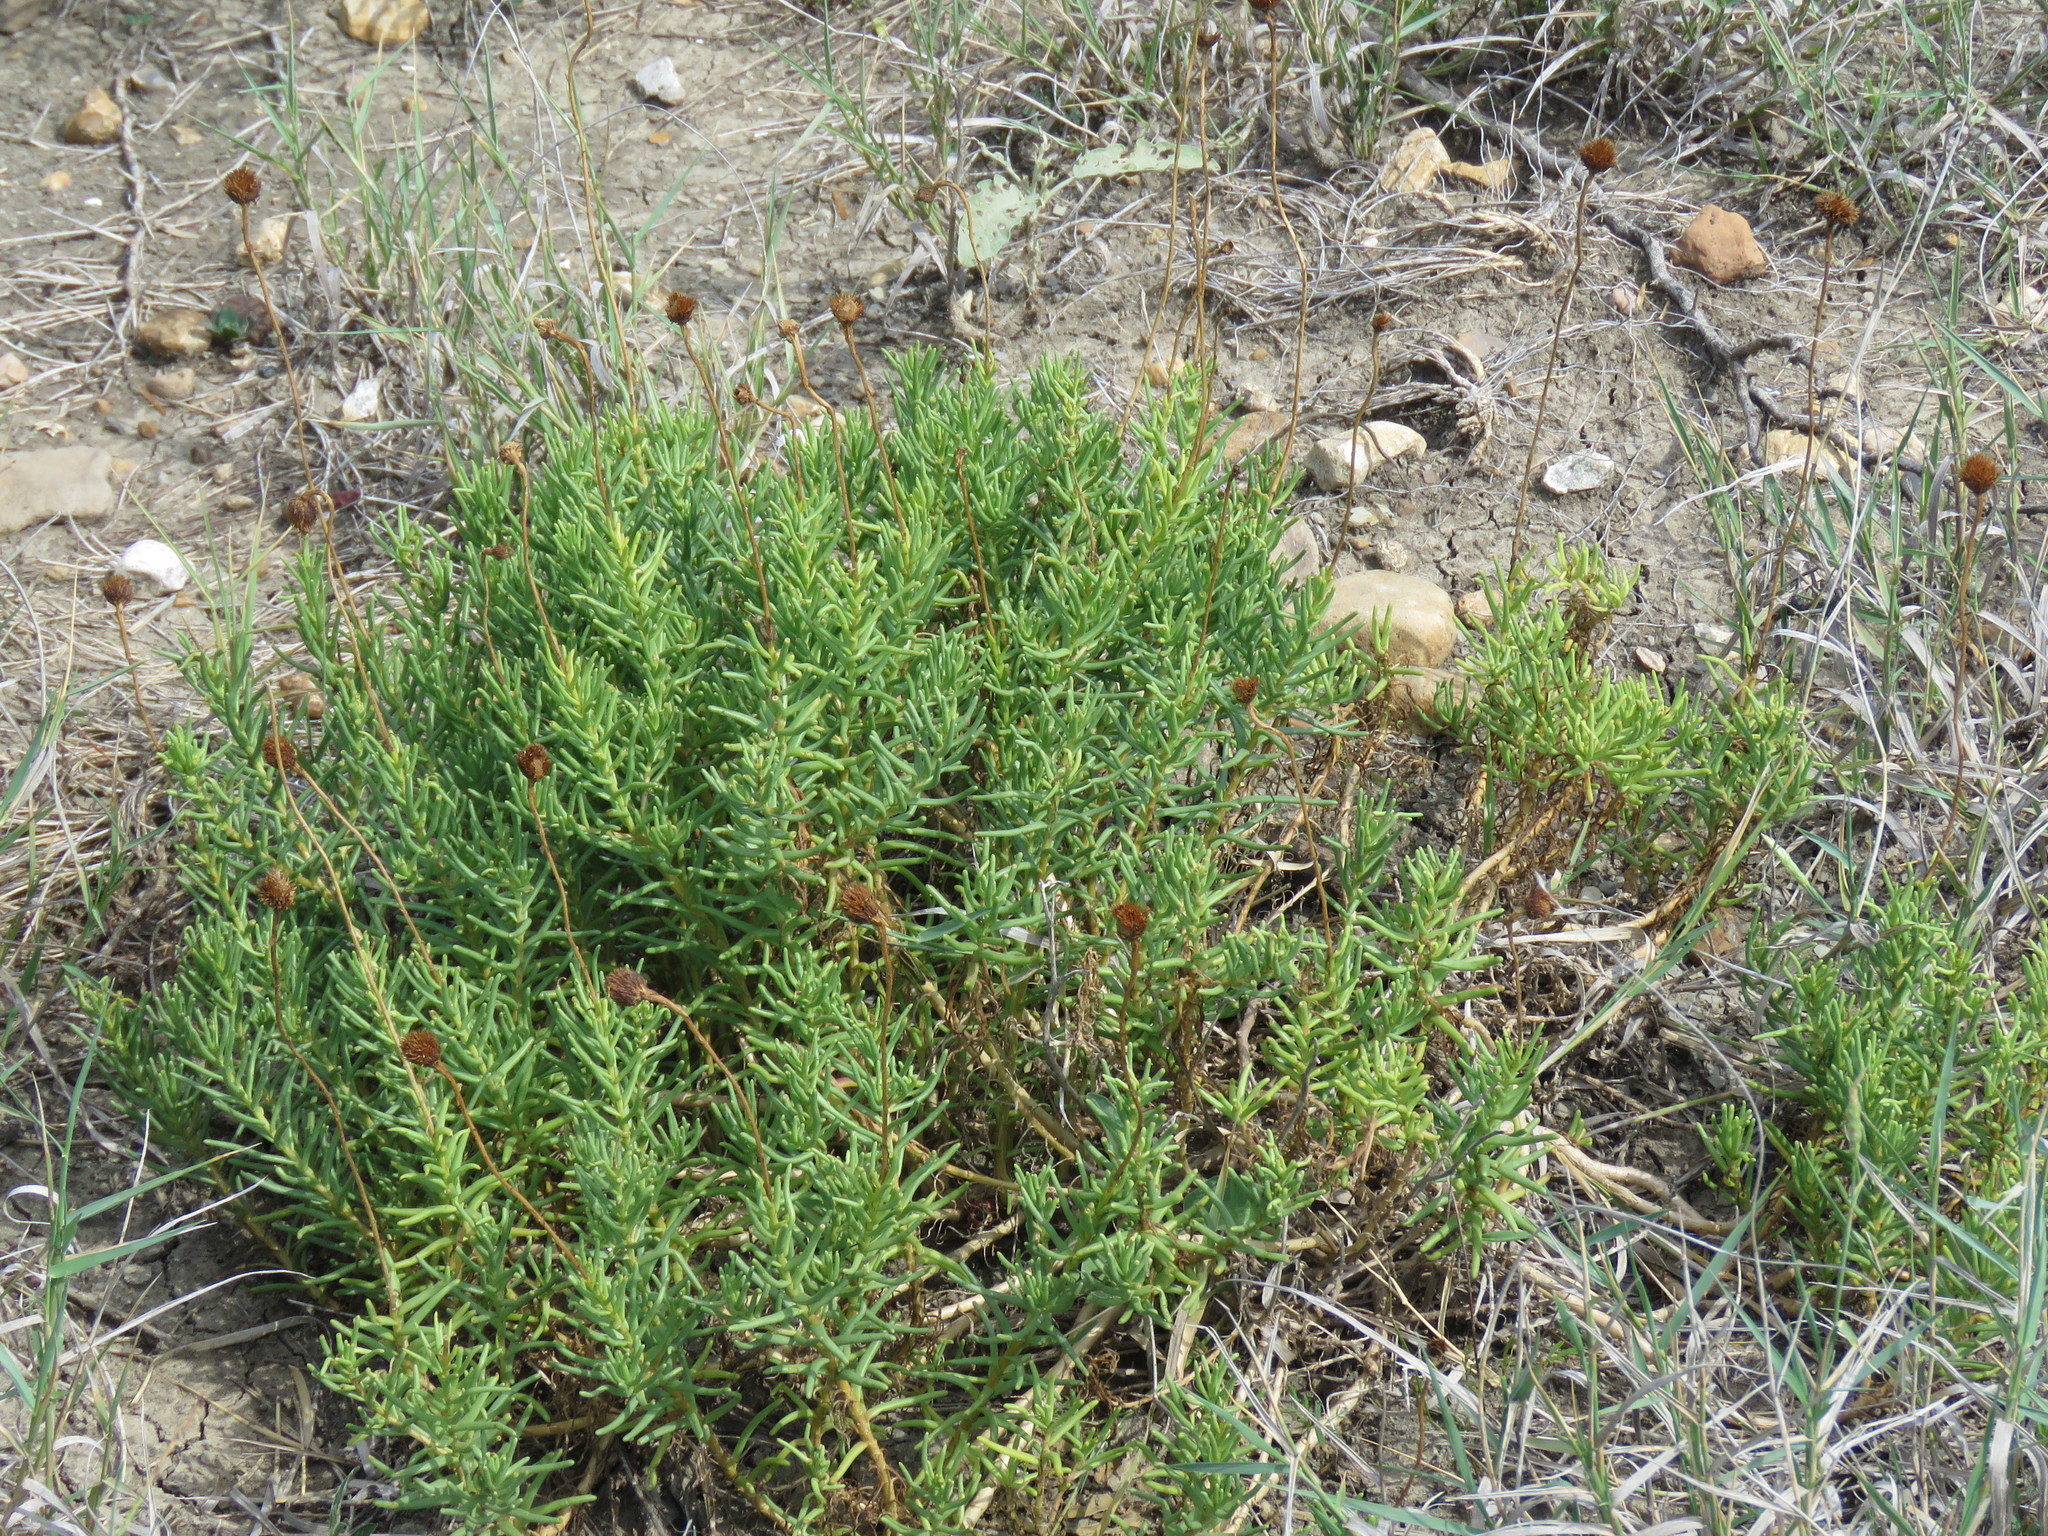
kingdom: Plantae
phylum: Tracheophyta
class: Magnoliopsida
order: Asterales
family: Asteraceae
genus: Clappia
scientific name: Clappia suaedifolia
